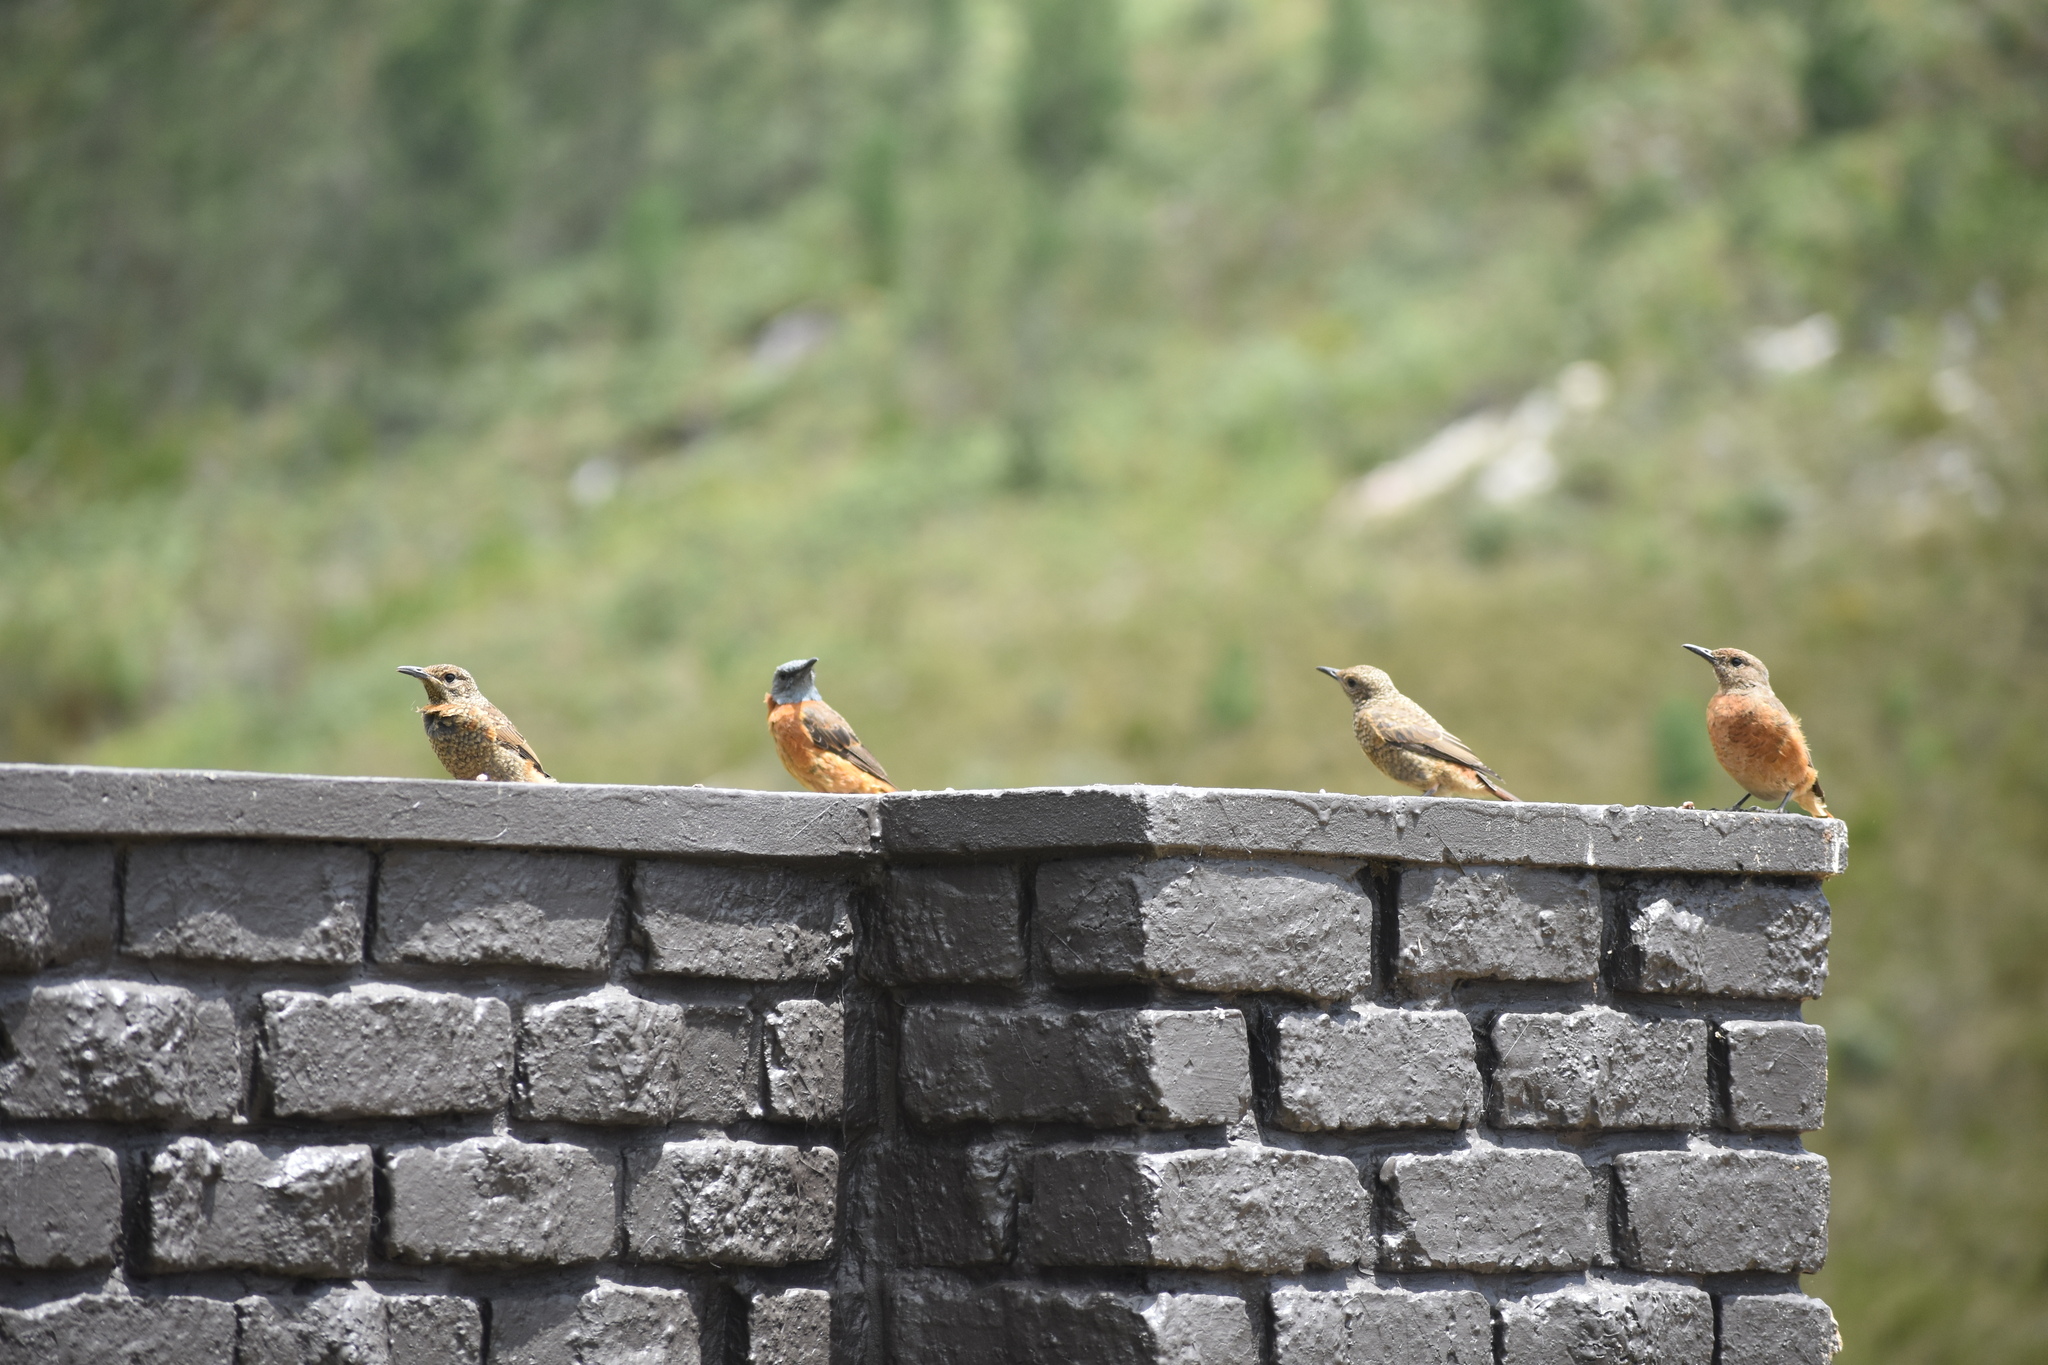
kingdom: Animalia
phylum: Chordata
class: Aves
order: Passeriformes
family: Muscicapidae
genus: Monticola
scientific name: Monticola rupestris
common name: Cape rock thrush
